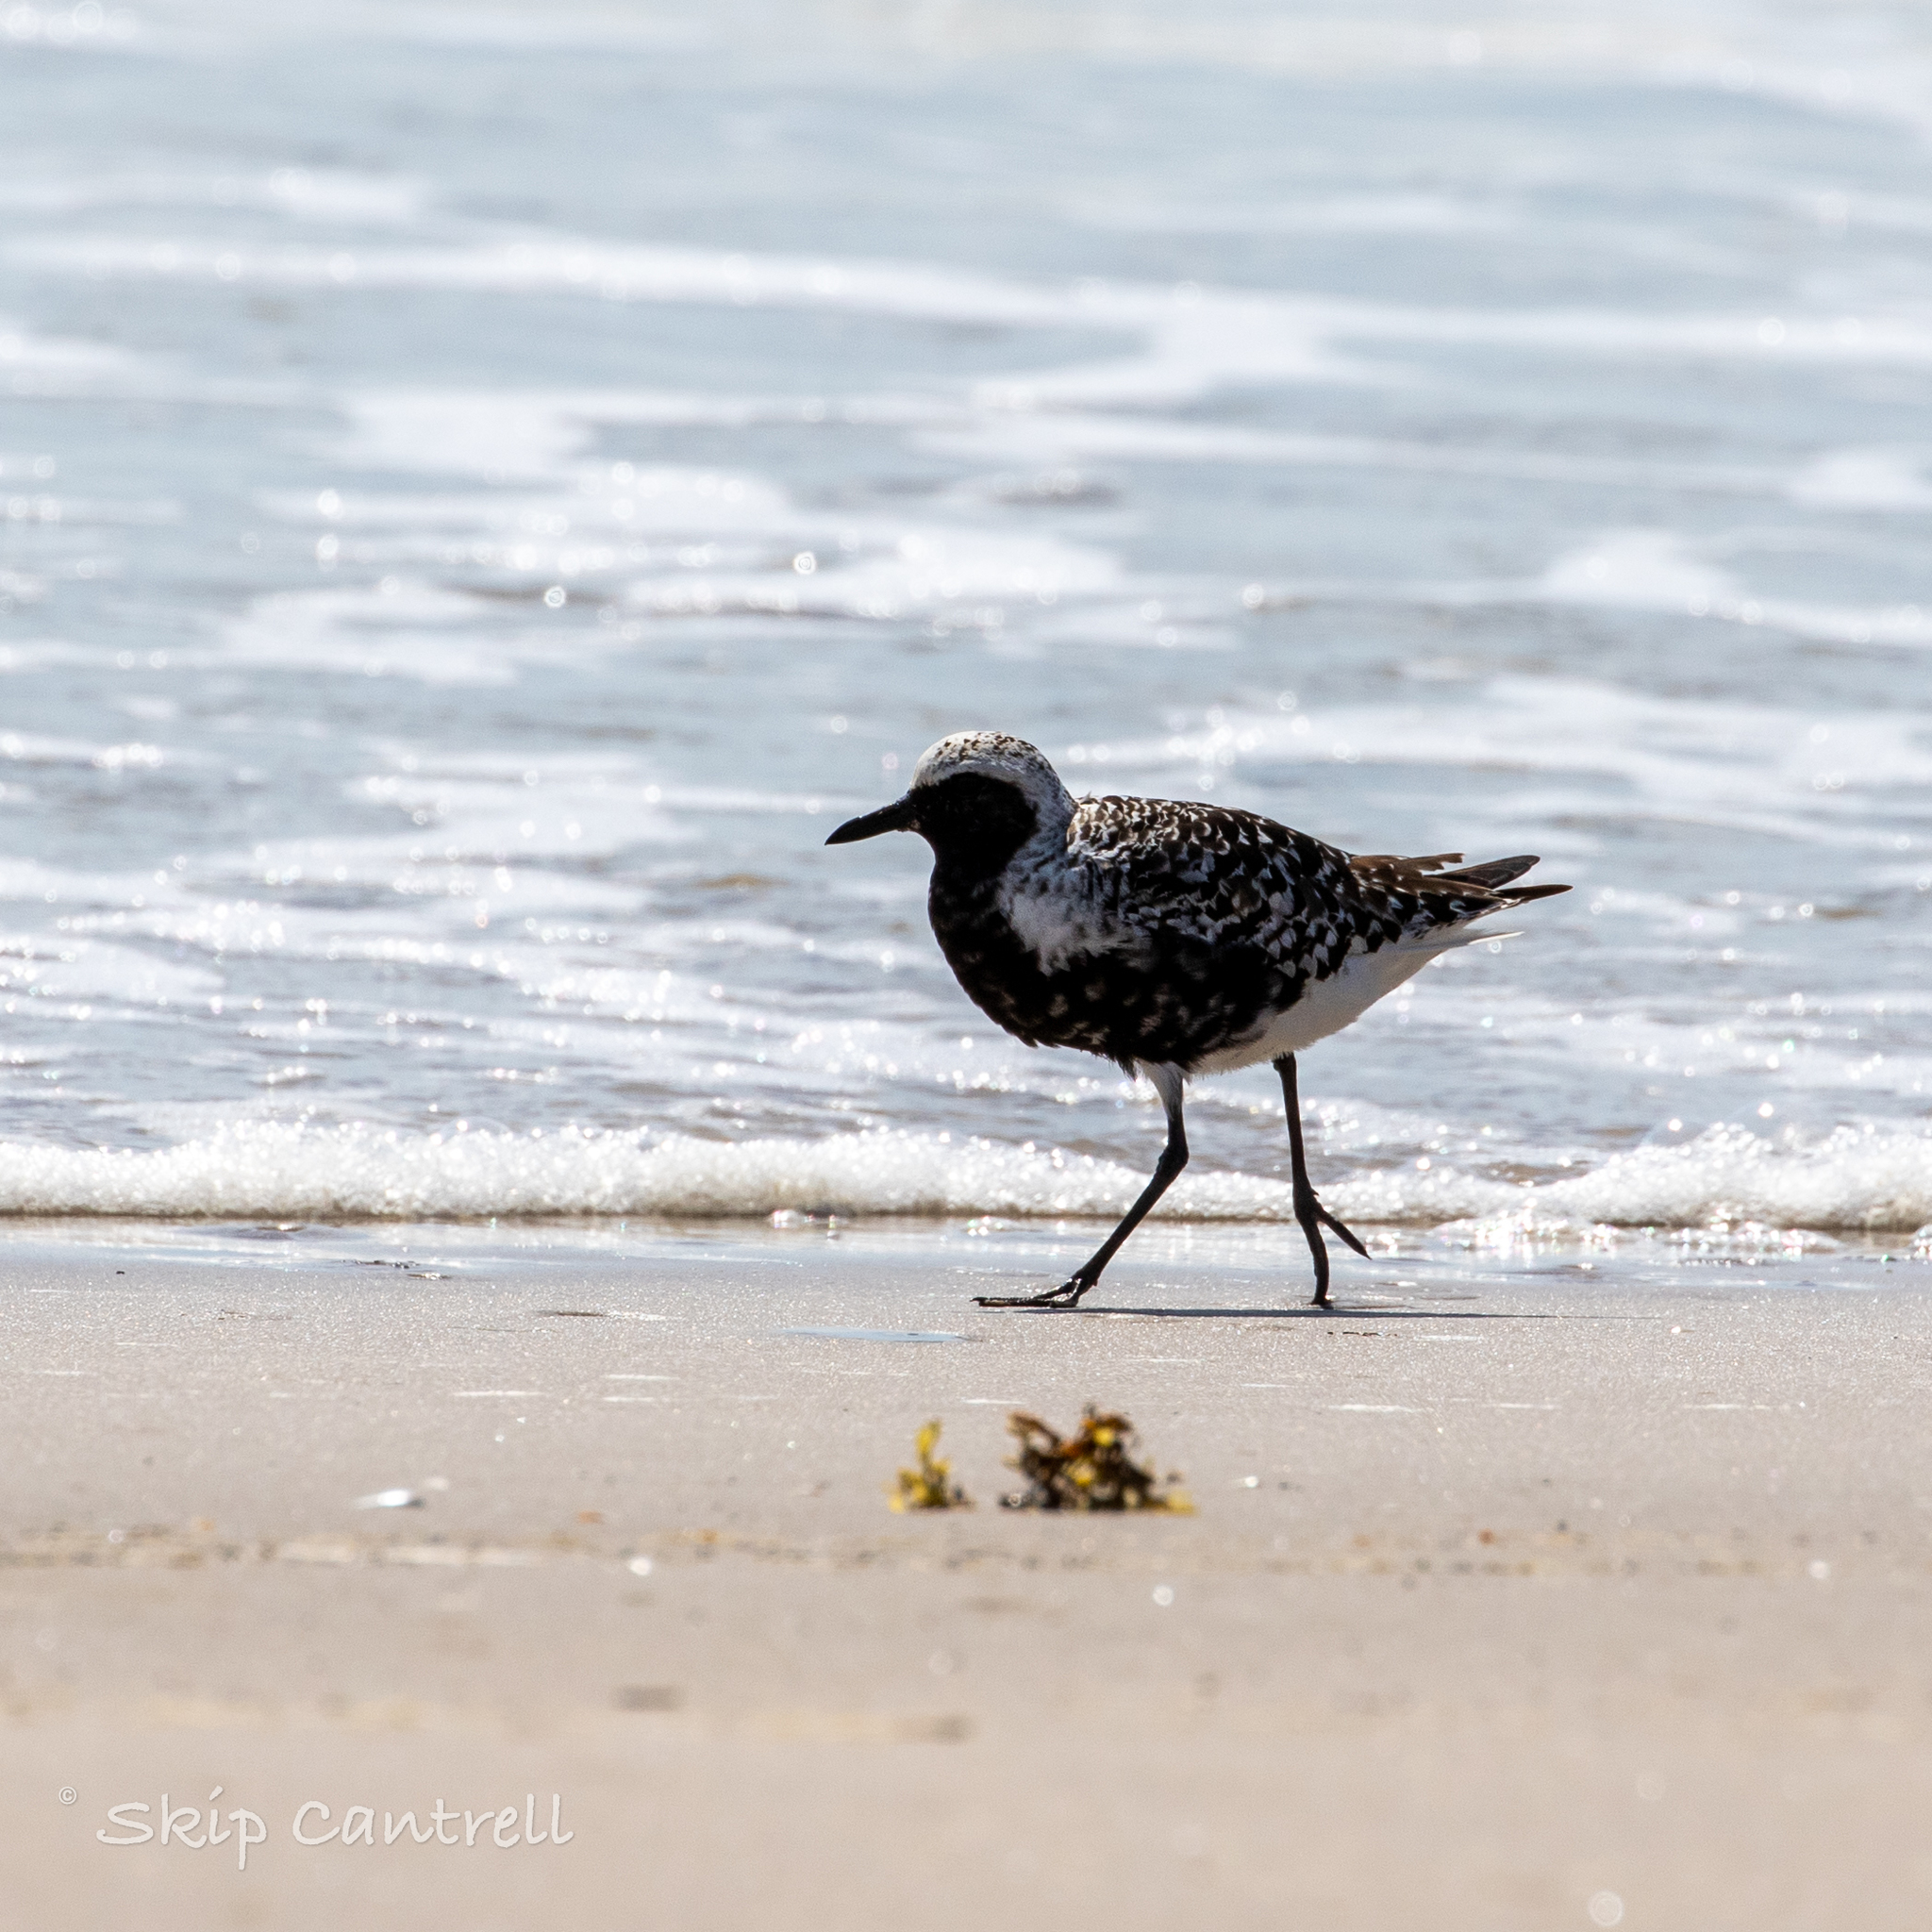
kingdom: Animalia
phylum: Chordata
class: Aves
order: Charadriiformes
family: Charadriidae
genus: Pluvialis
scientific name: Pluvialis squatarola
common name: Grey plover
